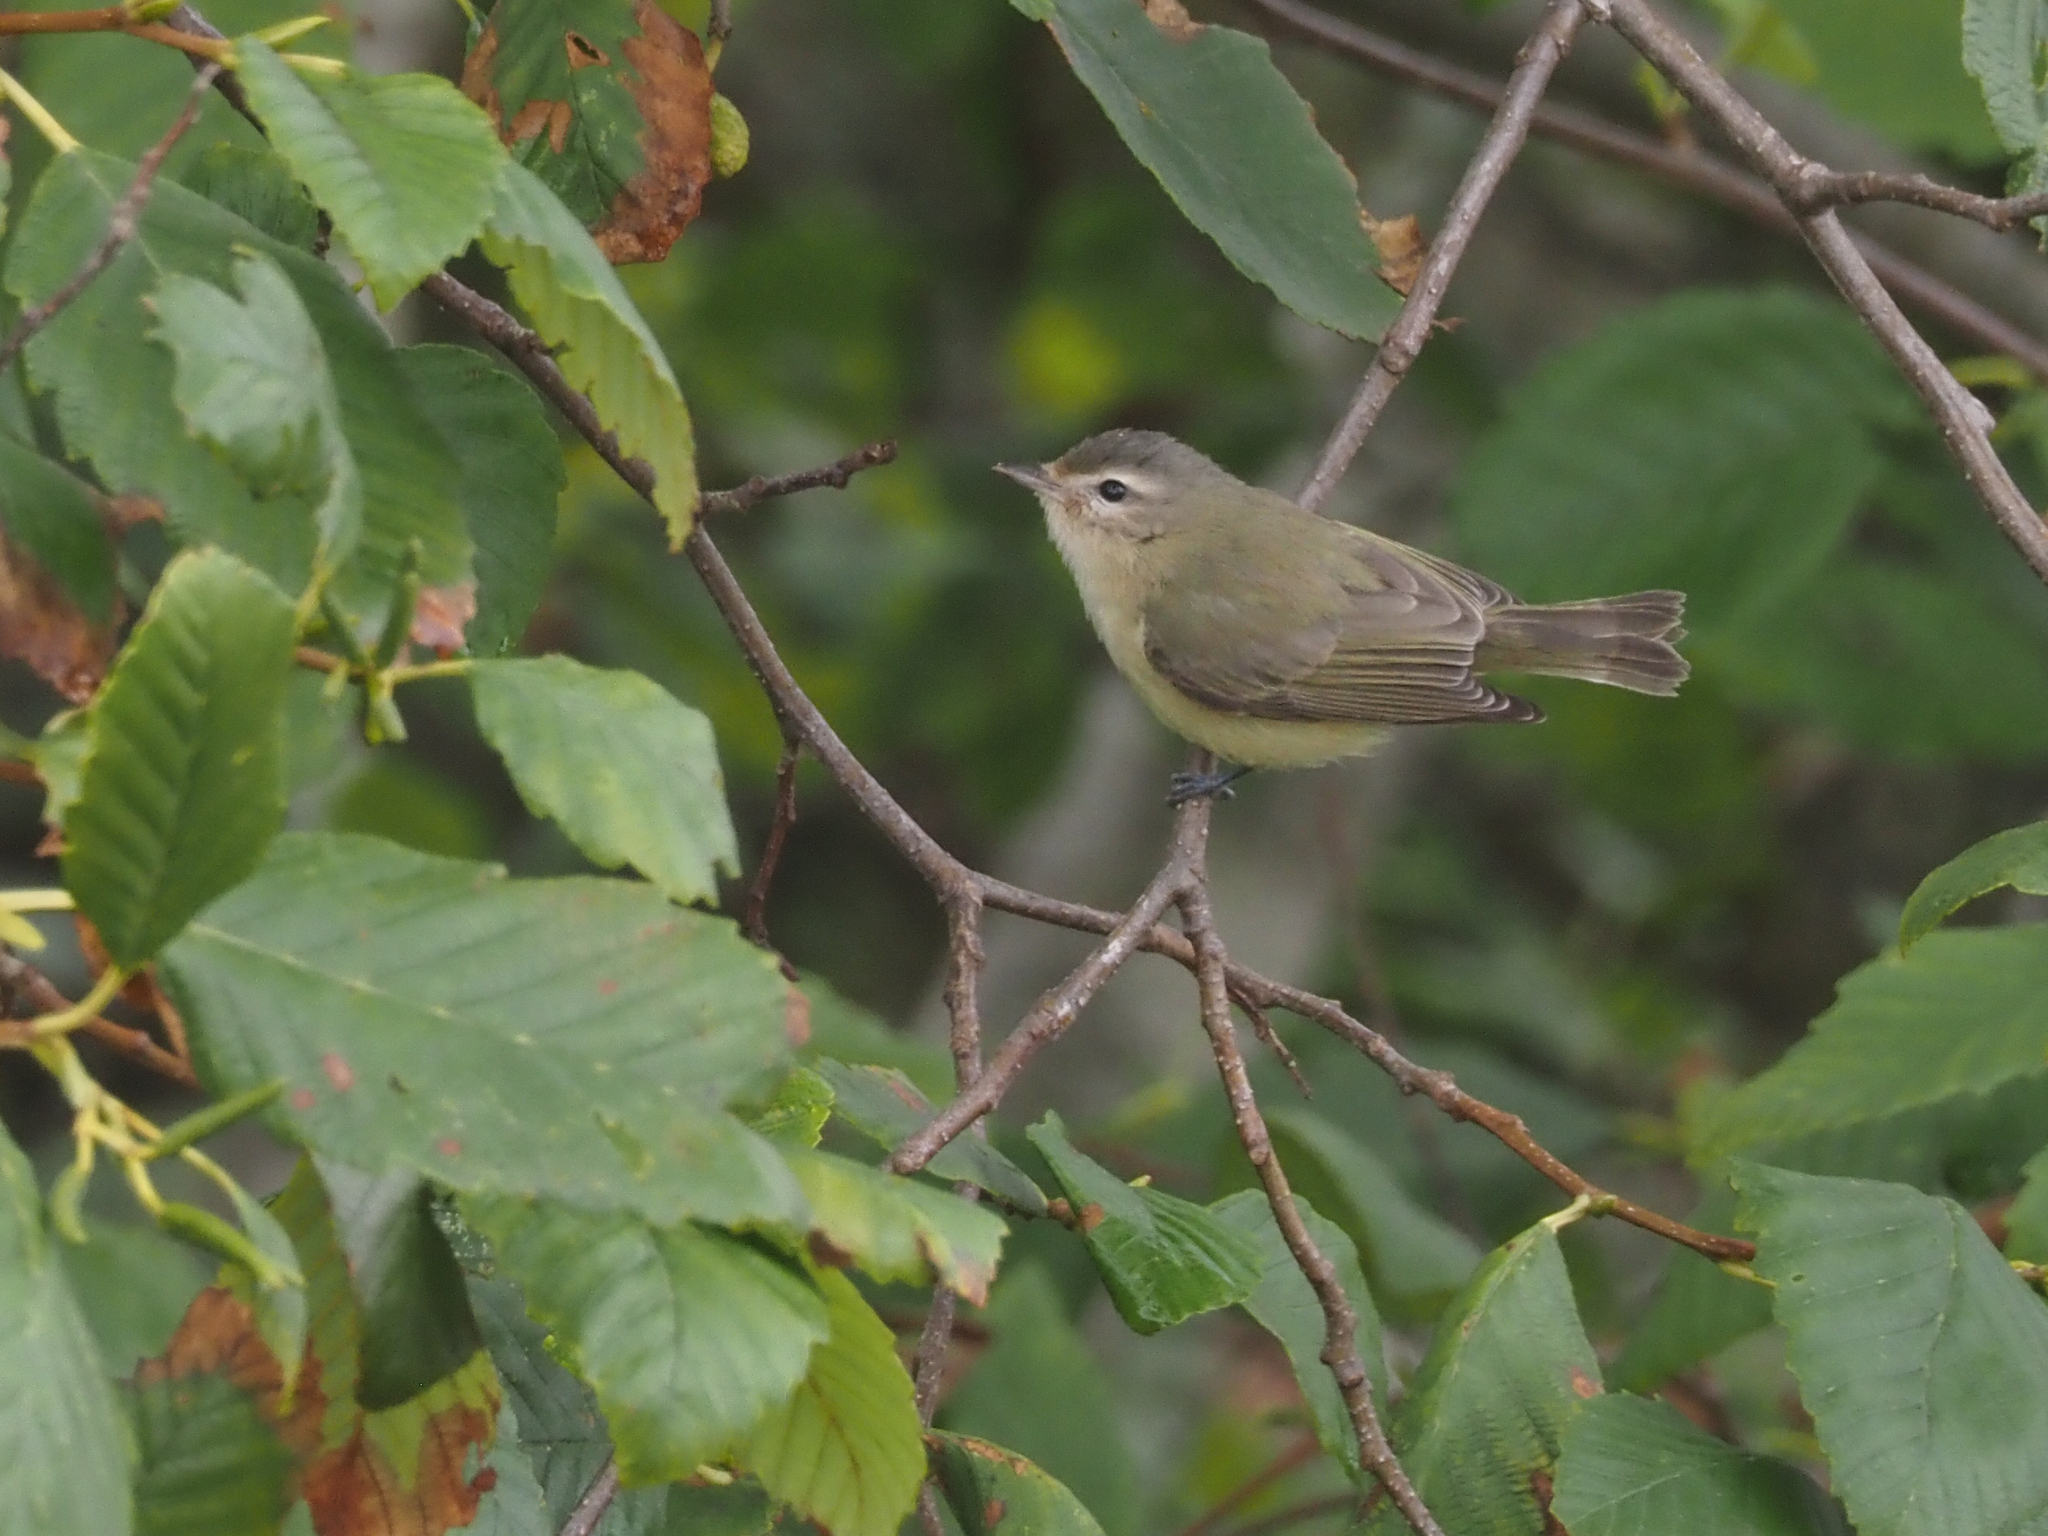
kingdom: Animalia
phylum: Chordata
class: Aves
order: Passeriformes
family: Vireonidae
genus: Vireo
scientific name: Vireo gilvus
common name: Warbling vireo
